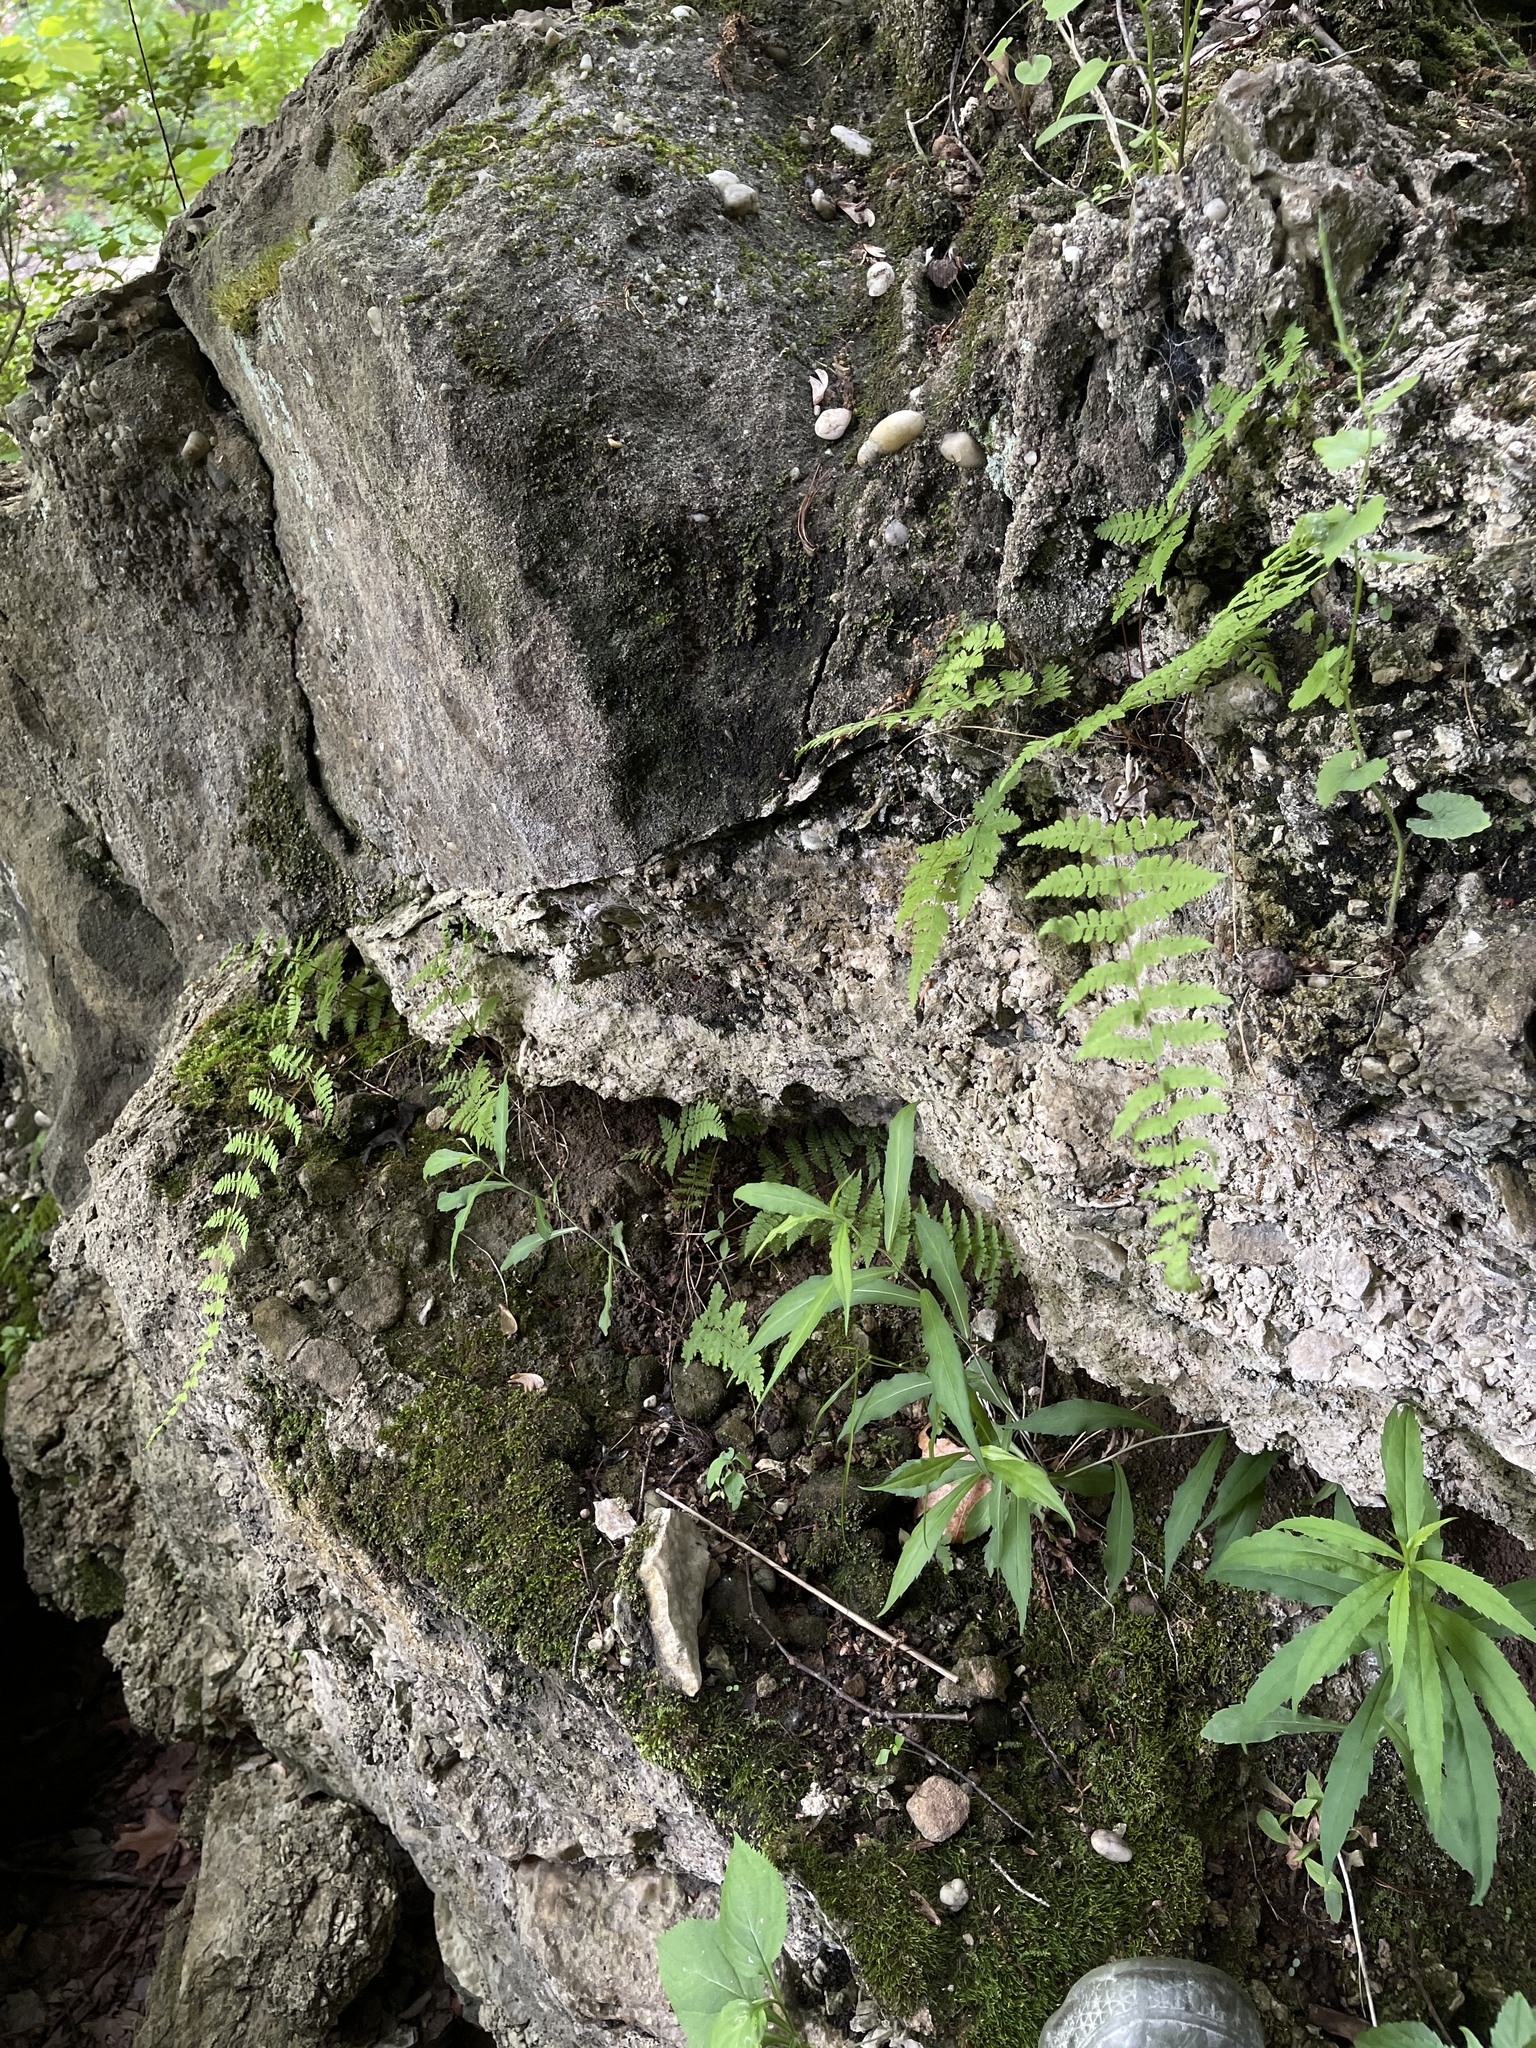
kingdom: Plantae
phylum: Tracheophyta
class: Polypodiopsida
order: Polypodiales
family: Cystopteridaceae
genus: Cystopteris
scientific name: Cystopteris bulbifera
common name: Bulblet bladder fern
